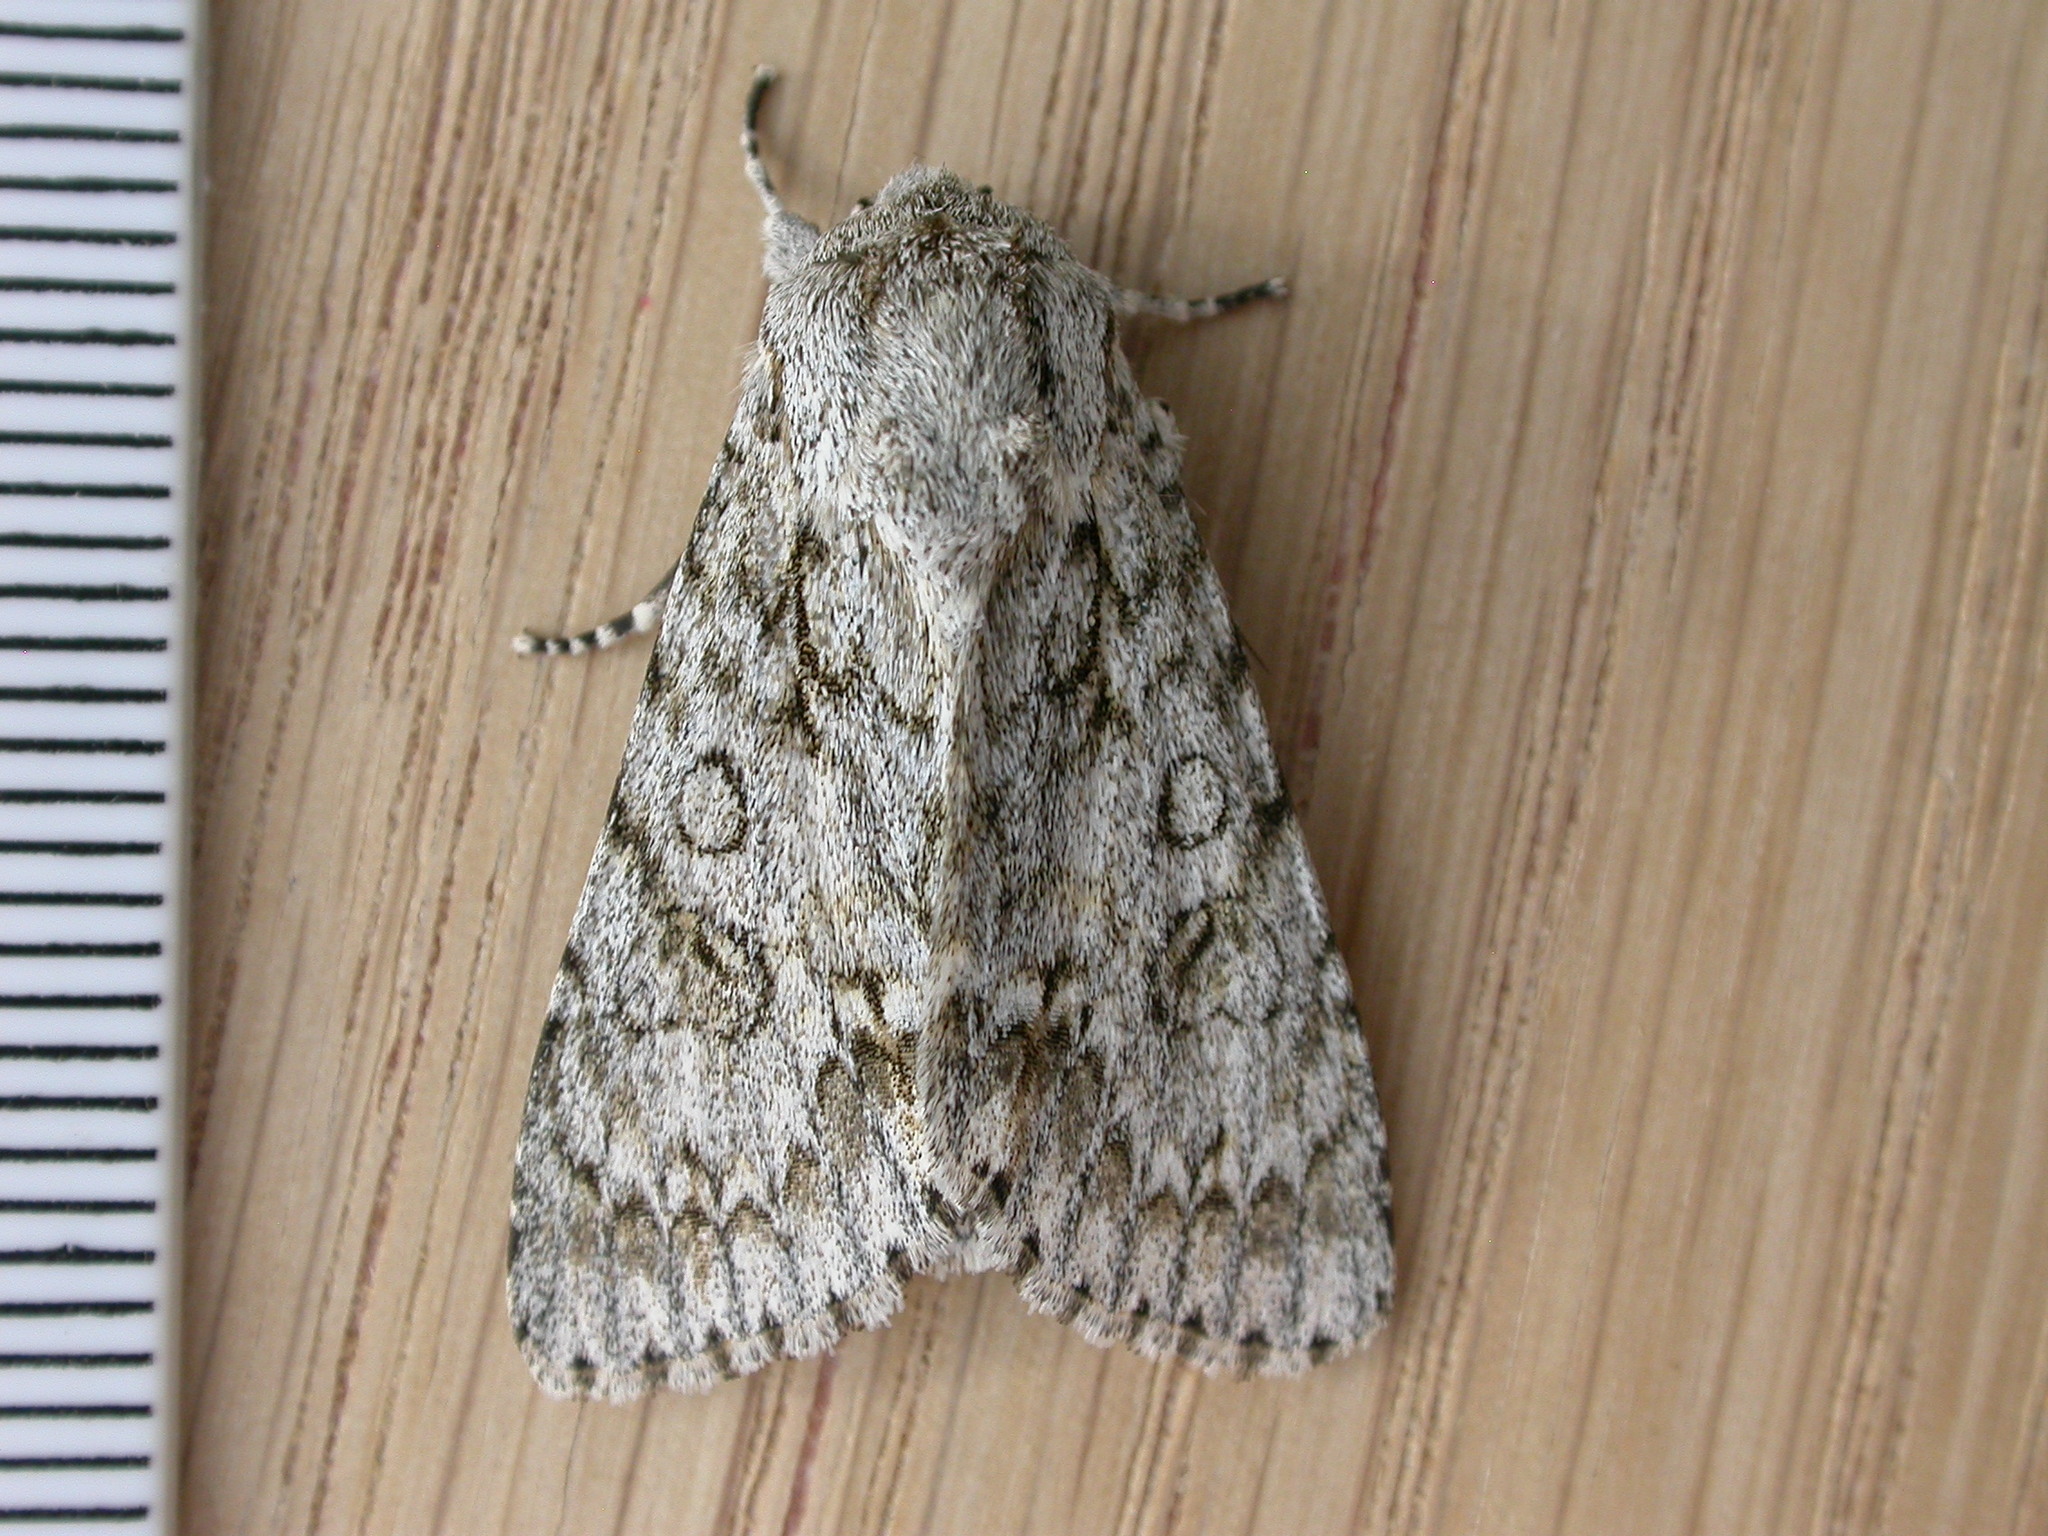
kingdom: Animalia
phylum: Arthropoda
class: Insecta
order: Lepidoptera
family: Noctuidae
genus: Acronicta
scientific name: Acronicta aceris
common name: Sycamore
